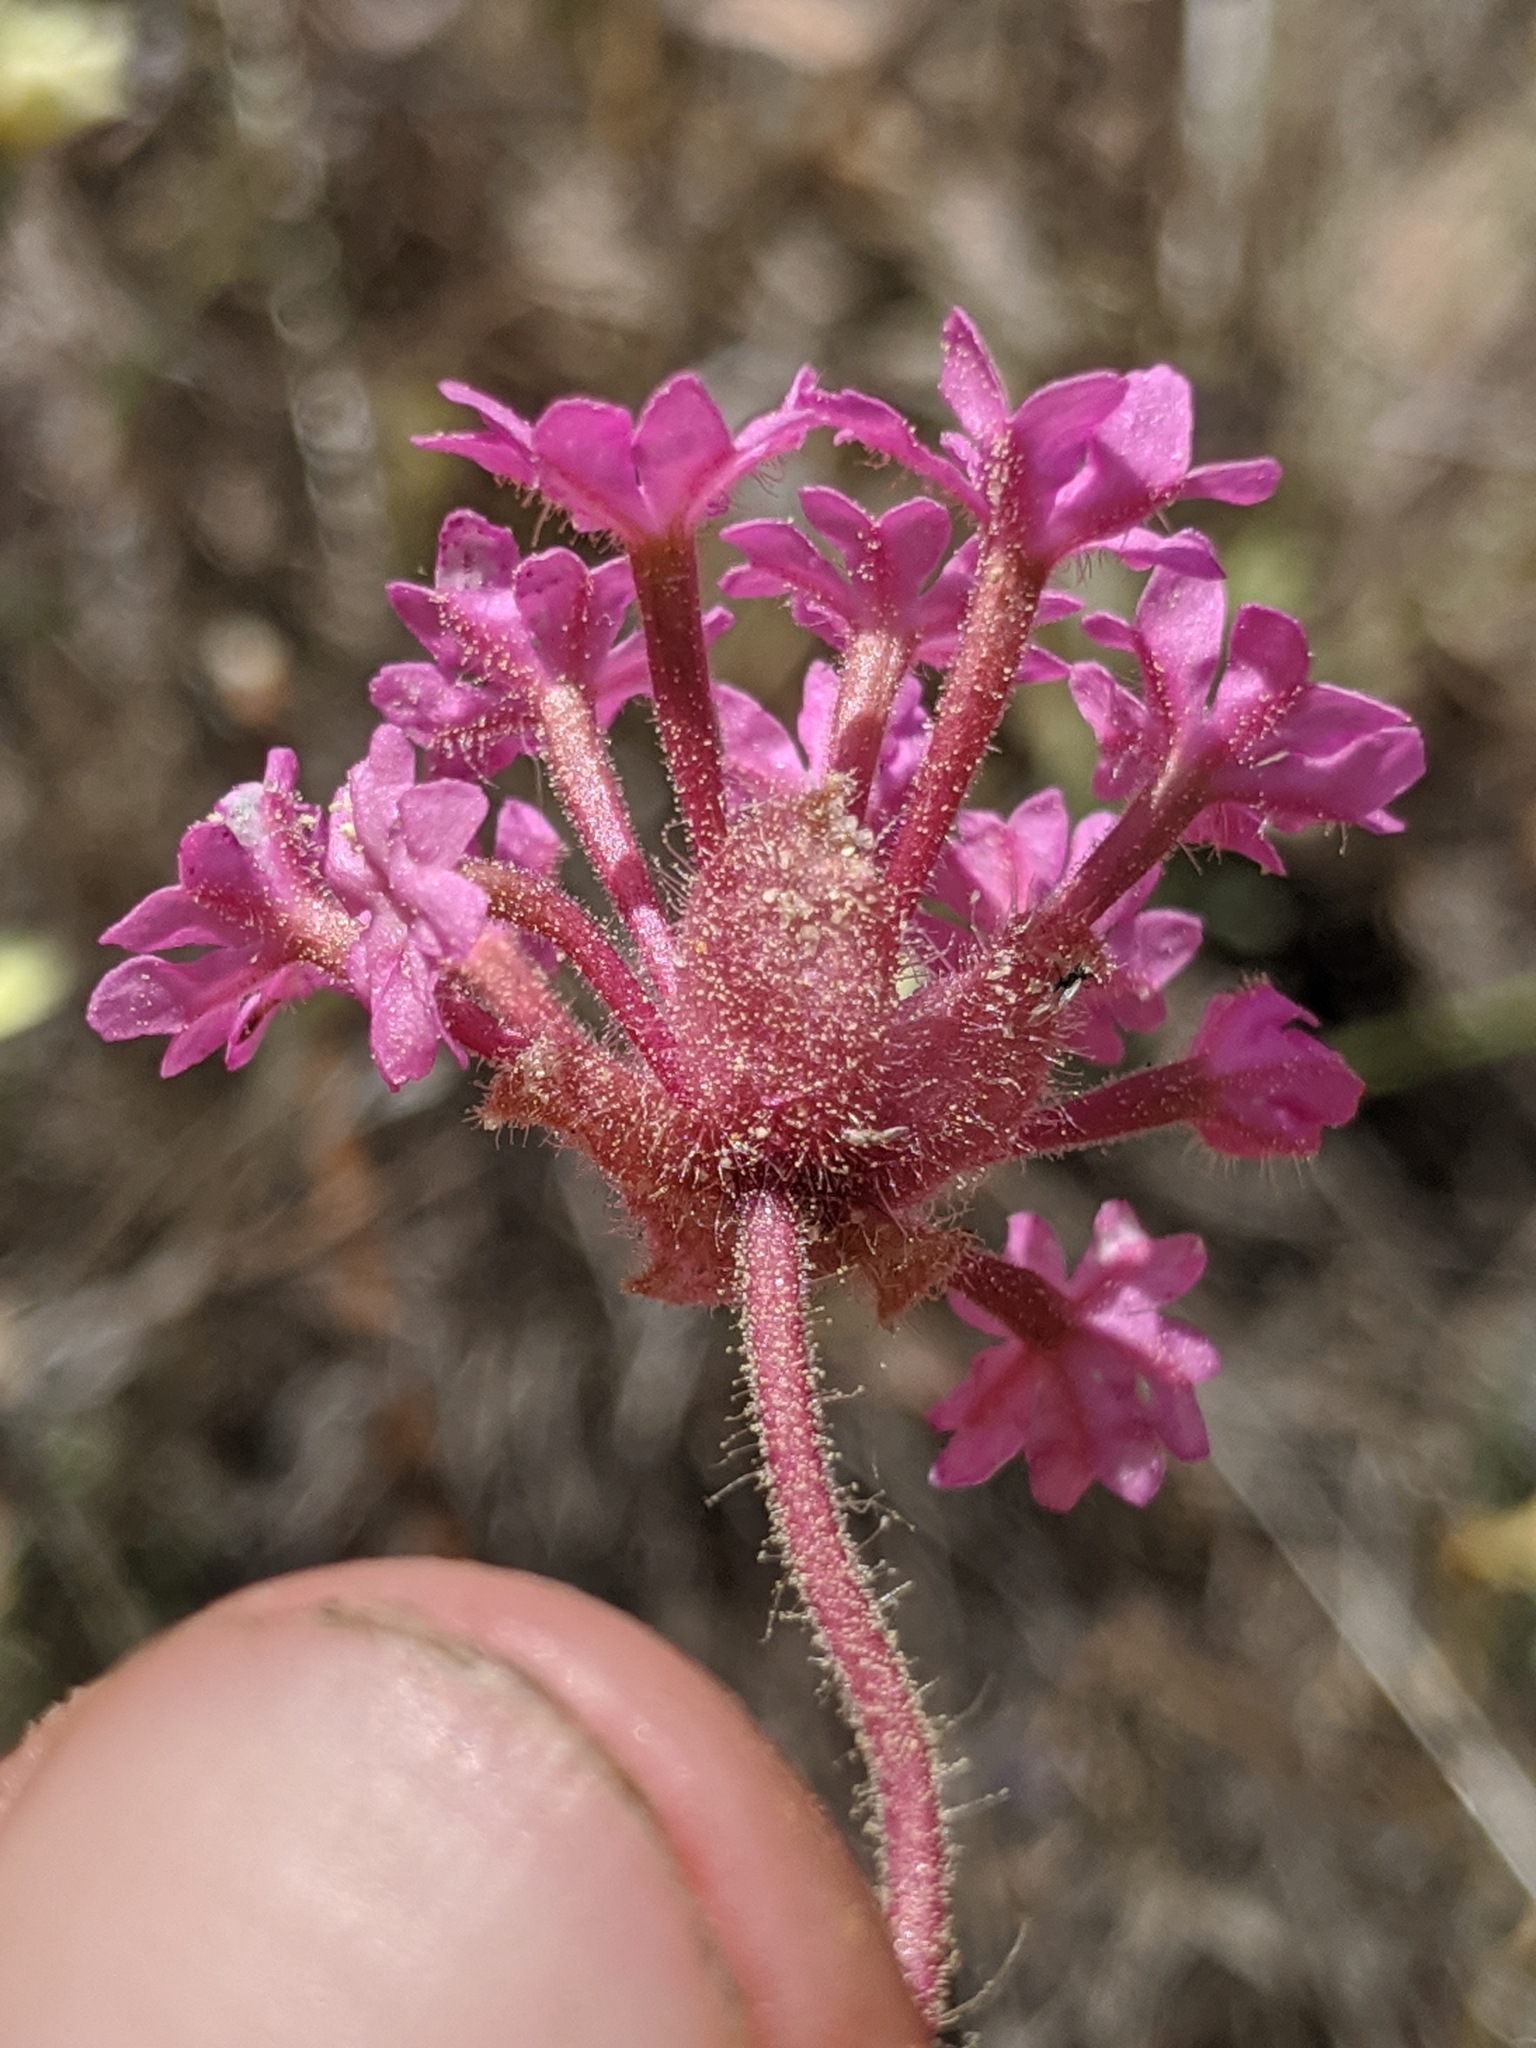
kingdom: Plantae
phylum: Tracheophyta
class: Magnoliopsida
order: Caryophyllales
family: Nyctaginaceae
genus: Abronia
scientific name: Abronia pogonantha
